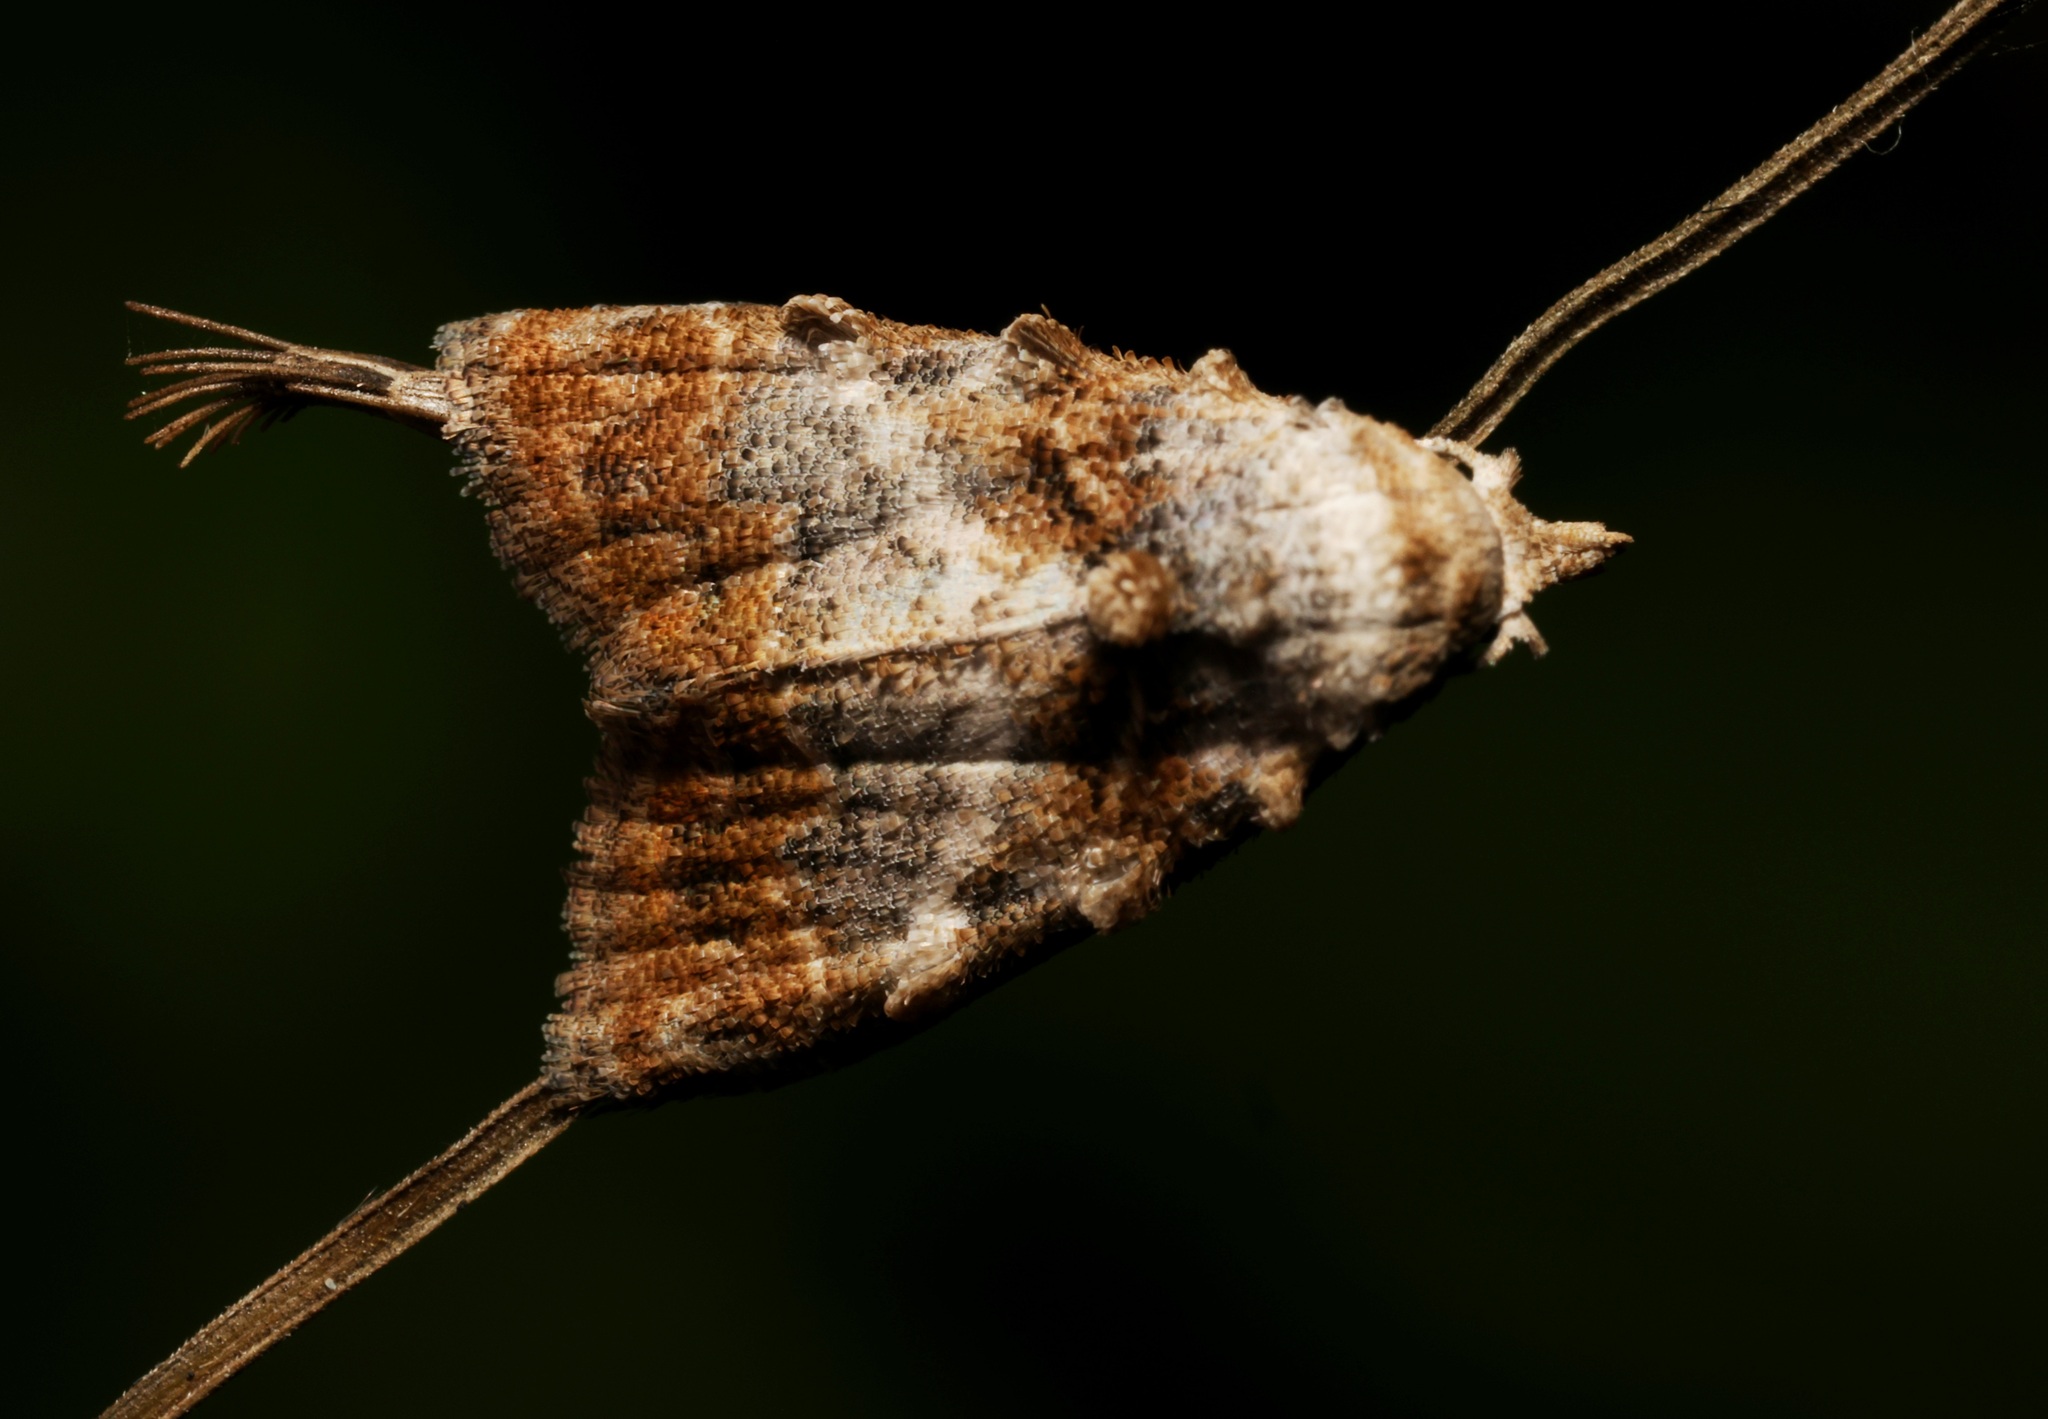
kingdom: Animalia
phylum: Arthropoda
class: Insecta
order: Lepidoptera
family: Nolidae
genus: Nola
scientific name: Nola kanshireiensis
